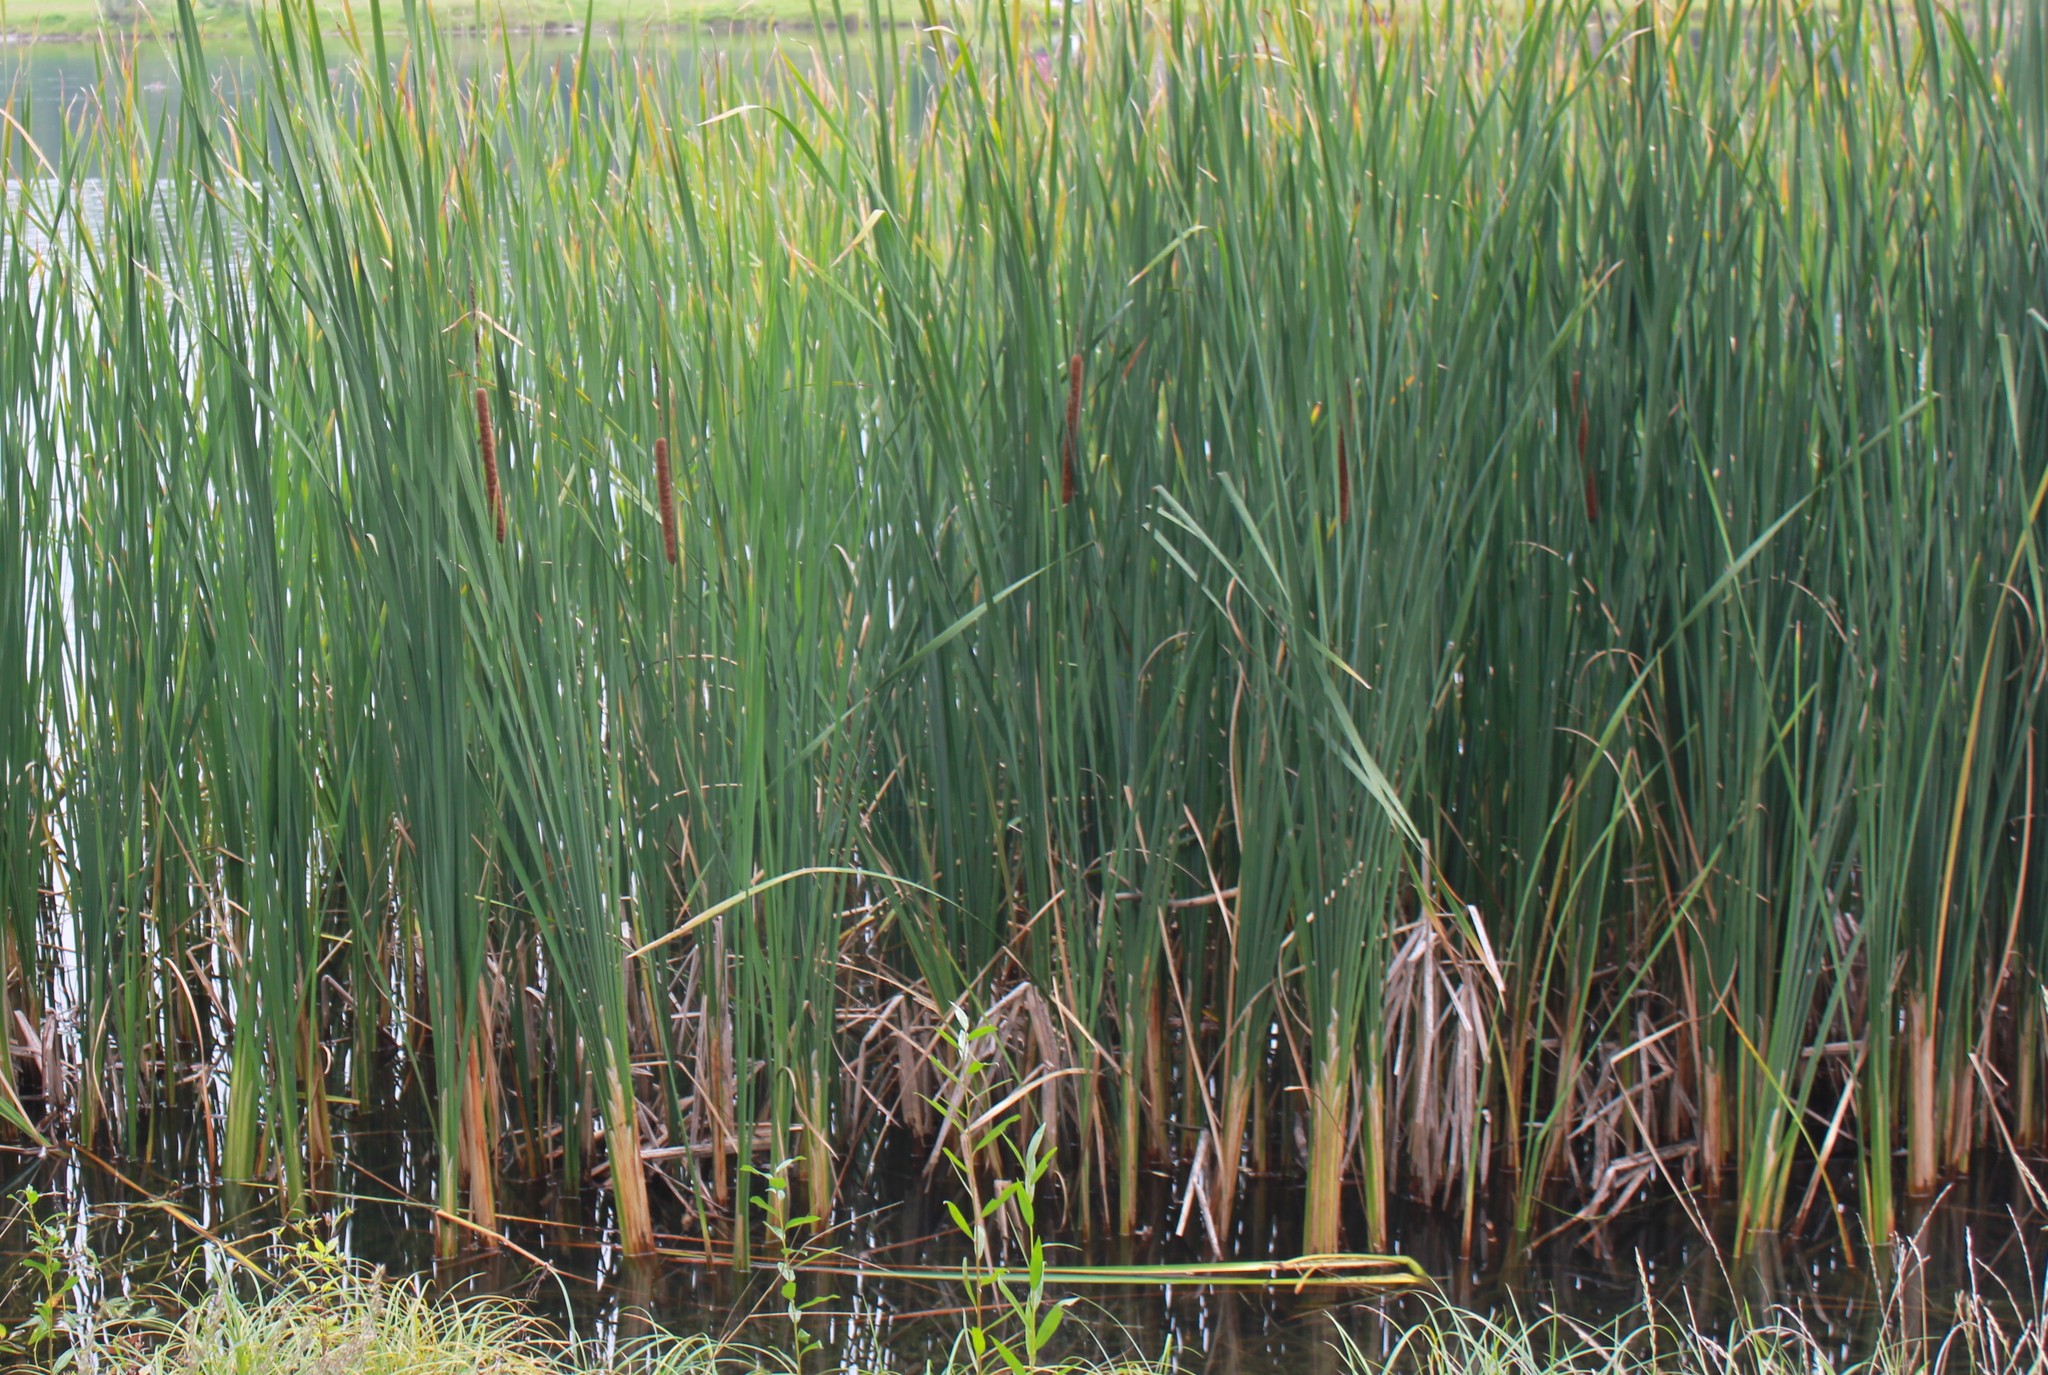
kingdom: Plantae
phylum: Tracheophyta
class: Liliopsida
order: Poales
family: Typhaceae
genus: Typha
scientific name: Typha angustifolia
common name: Lesser bulrush
